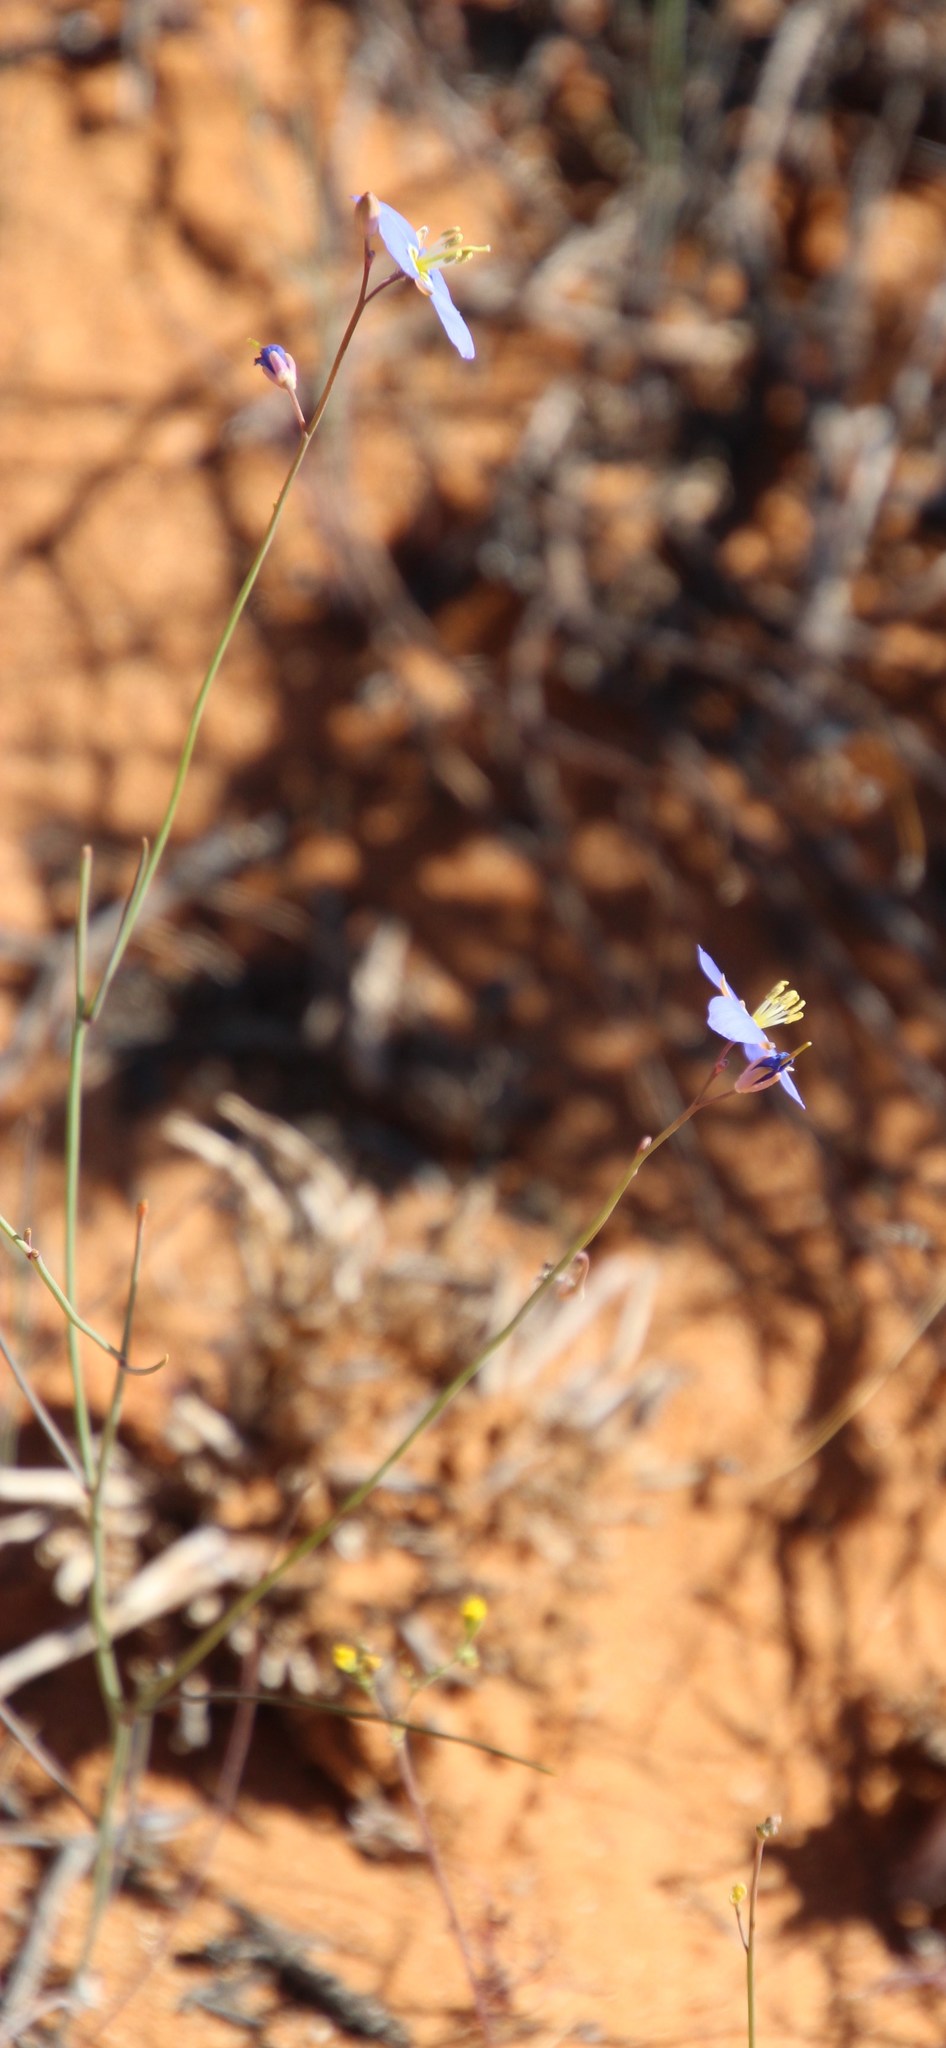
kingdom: Plantae
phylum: Tracheophyta
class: Magnoliopsida
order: Brassicales
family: Brassicaceae
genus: Heliophila
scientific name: Heliophila lactea
